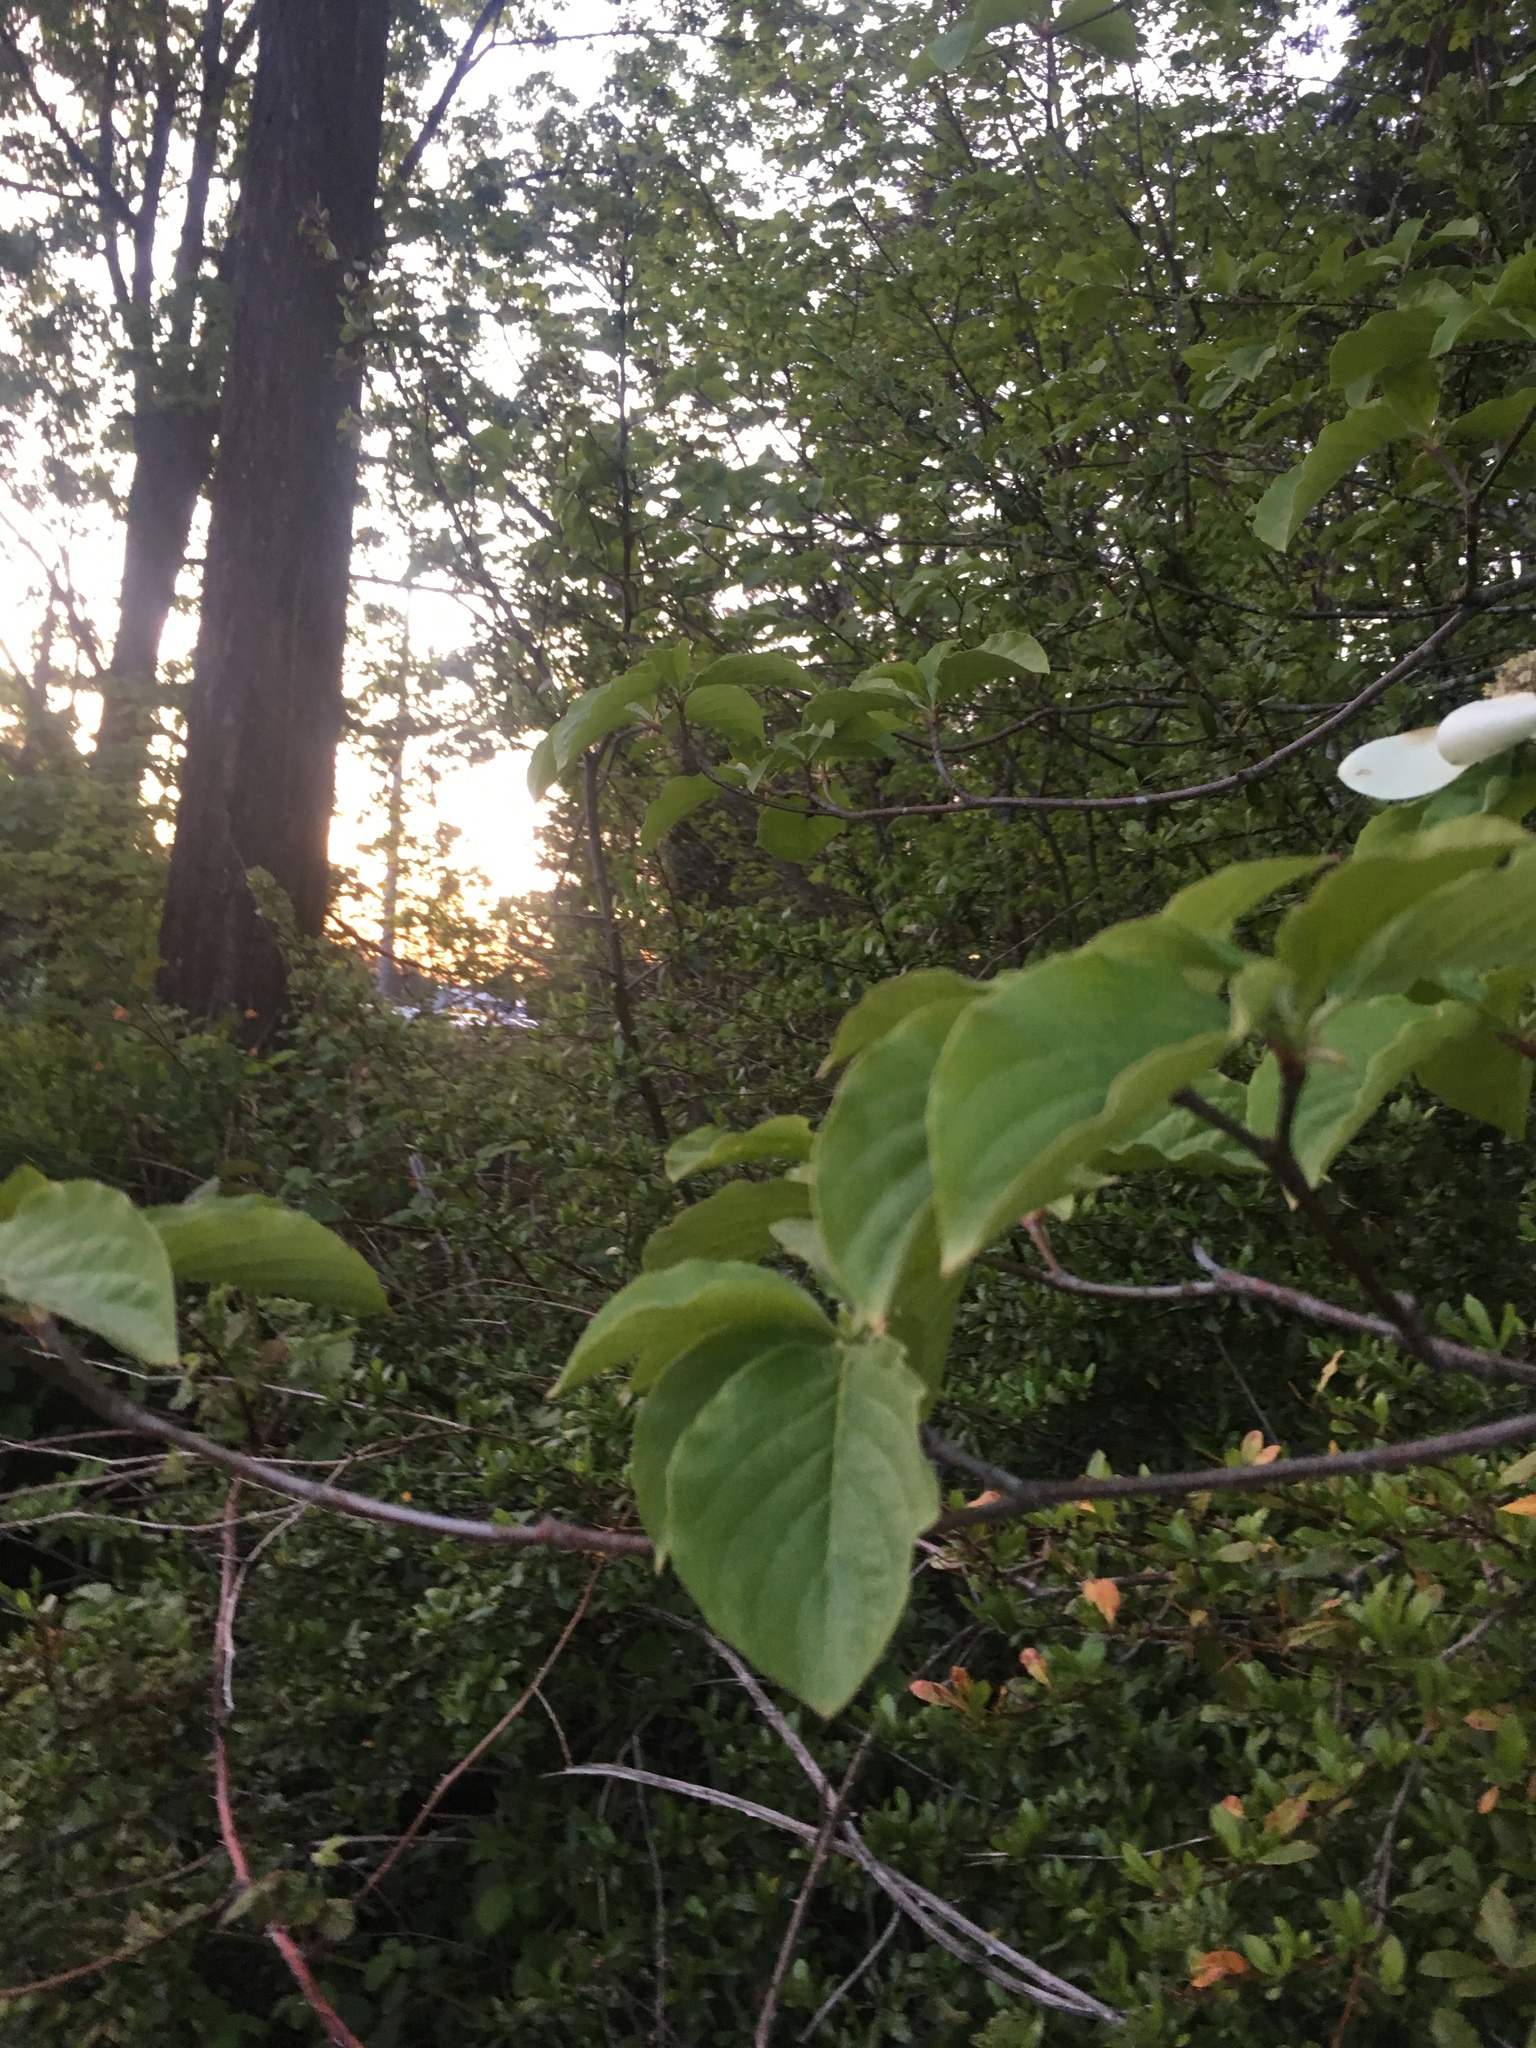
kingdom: Plantae
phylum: Tracheophyta
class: Magnoliopsida
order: Cornales
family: Cornaceae
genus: Cornus
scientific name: Cornus nuttallii
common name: Pacific dogwood
